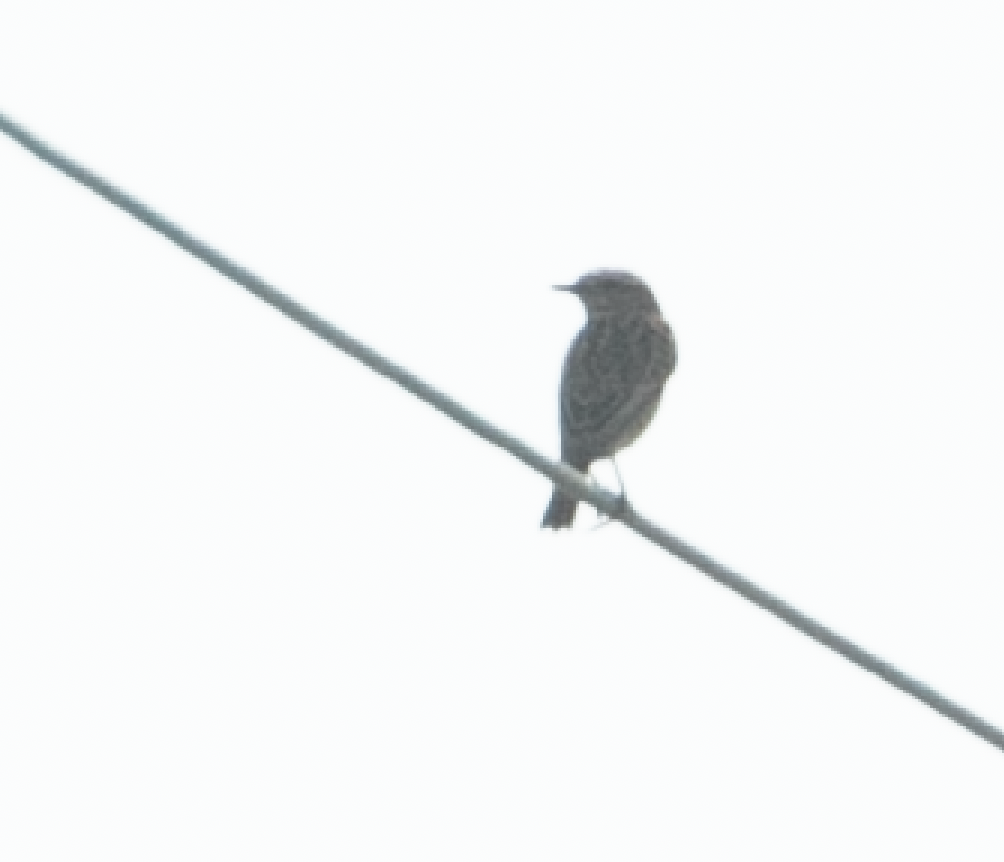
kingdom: Animalia
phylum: Chordata
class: Aves
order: Passeriformes
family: Muscicapidae
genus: Saxicola
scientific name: Saxicola rubetra
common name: Whinchat
